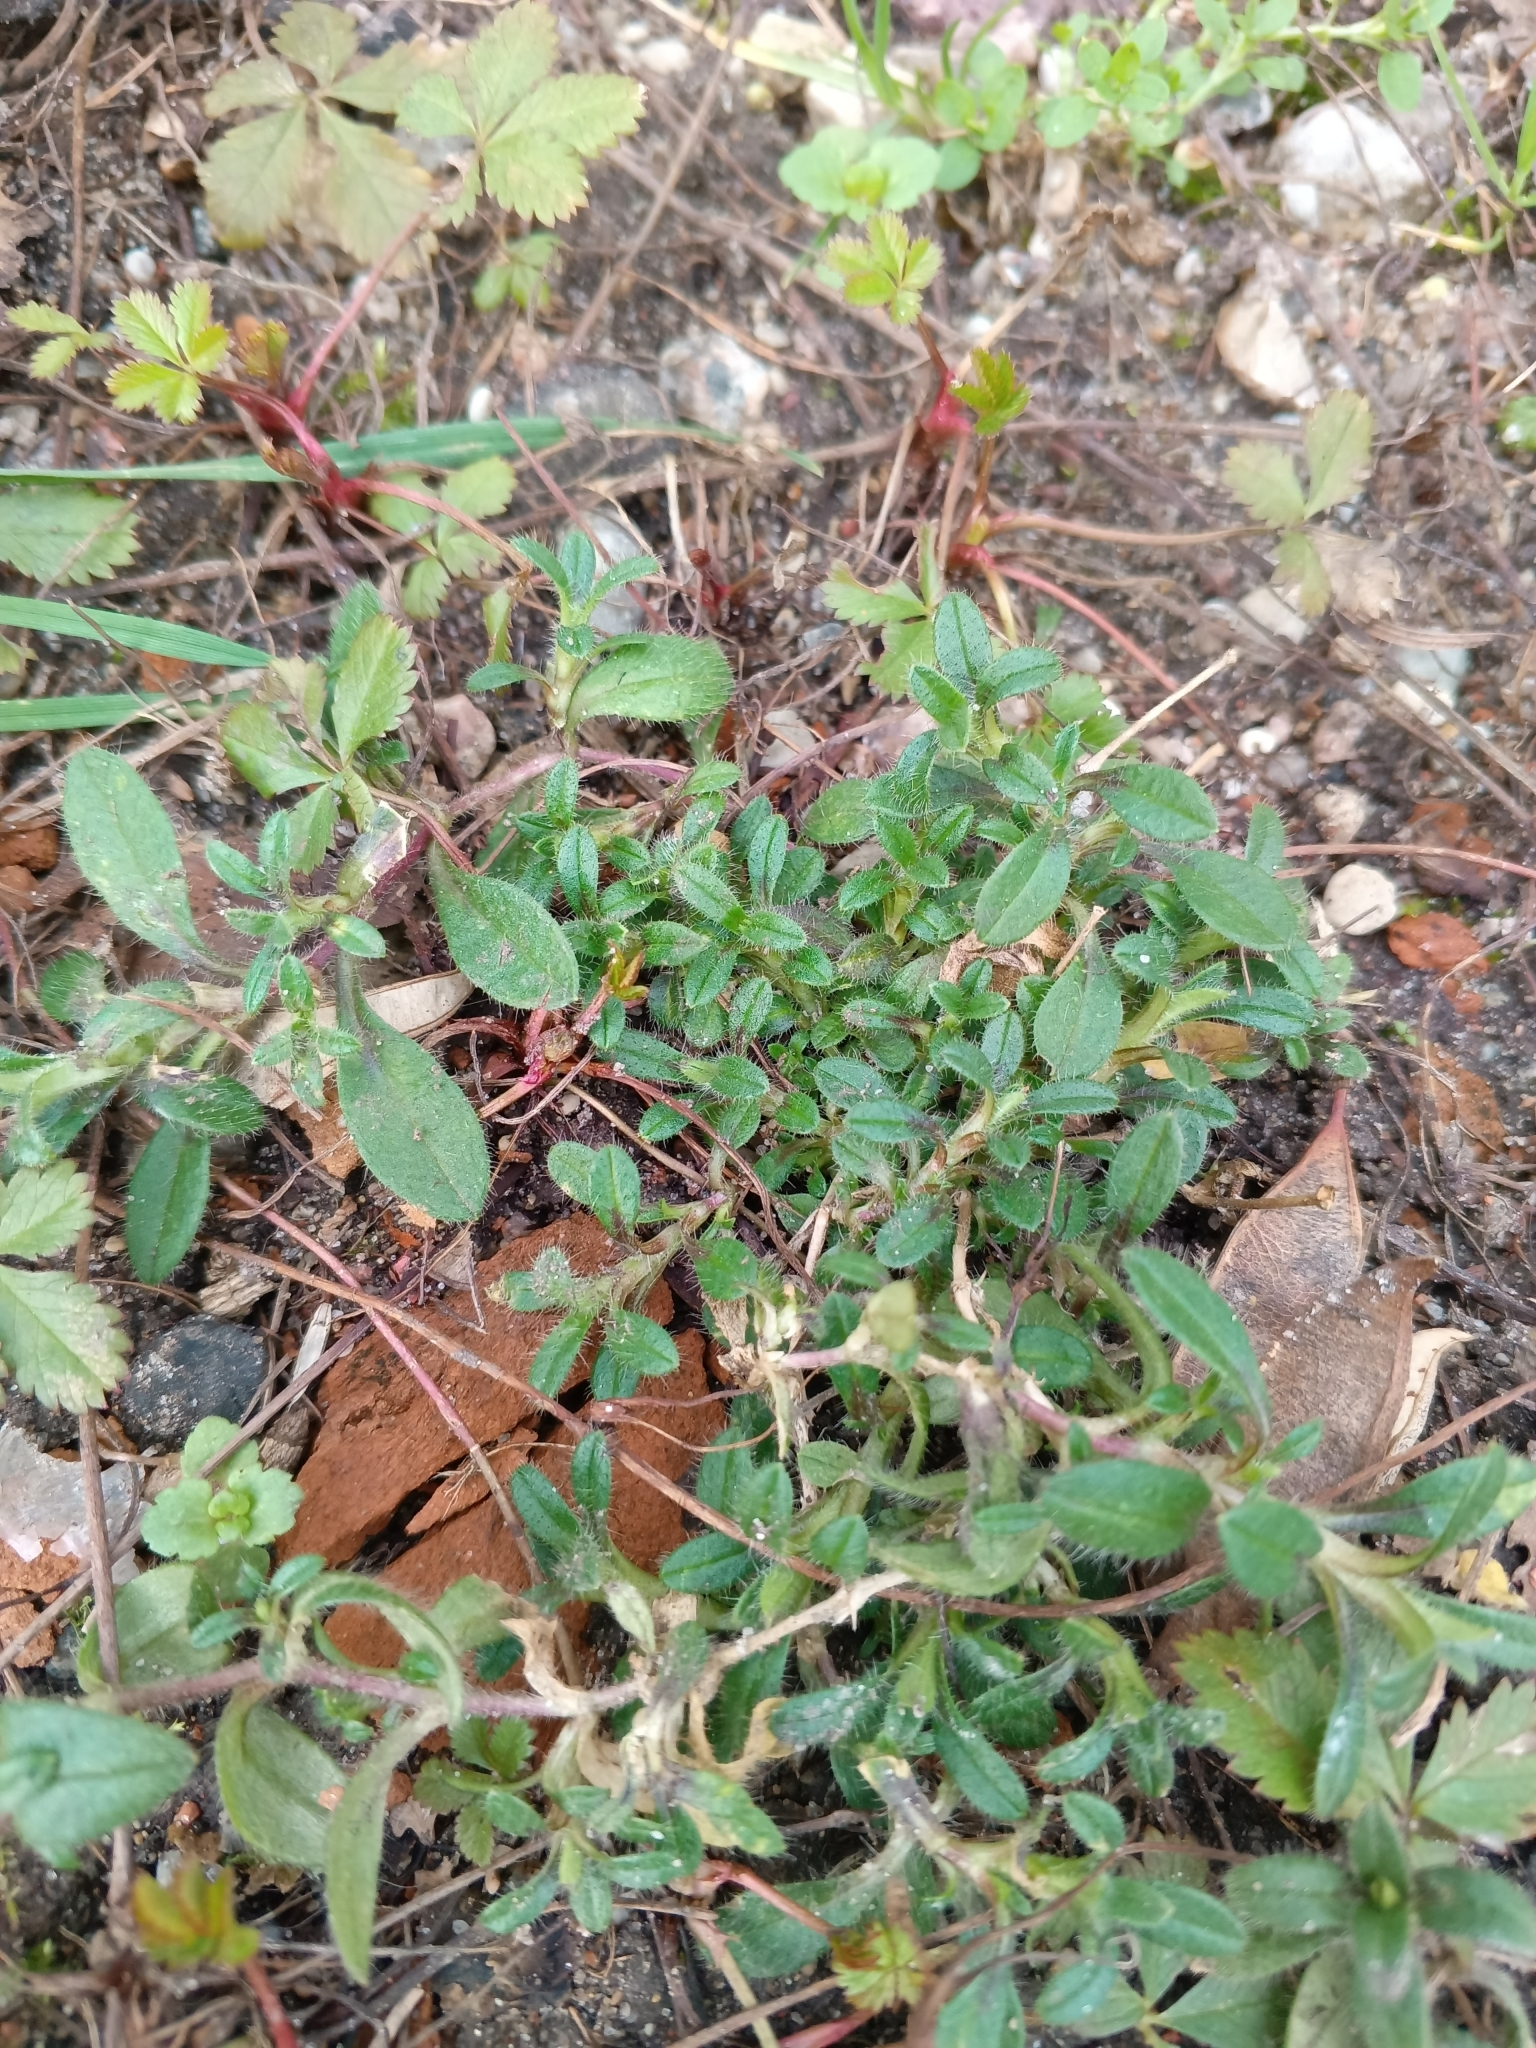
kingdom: Plantae
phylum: Tracheophyta
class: Magnoliopsida
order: Caryophyllales
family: Caryophyllaceae
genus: Cerastium
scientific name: Cerastium holosteoides
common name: Big chickweed
